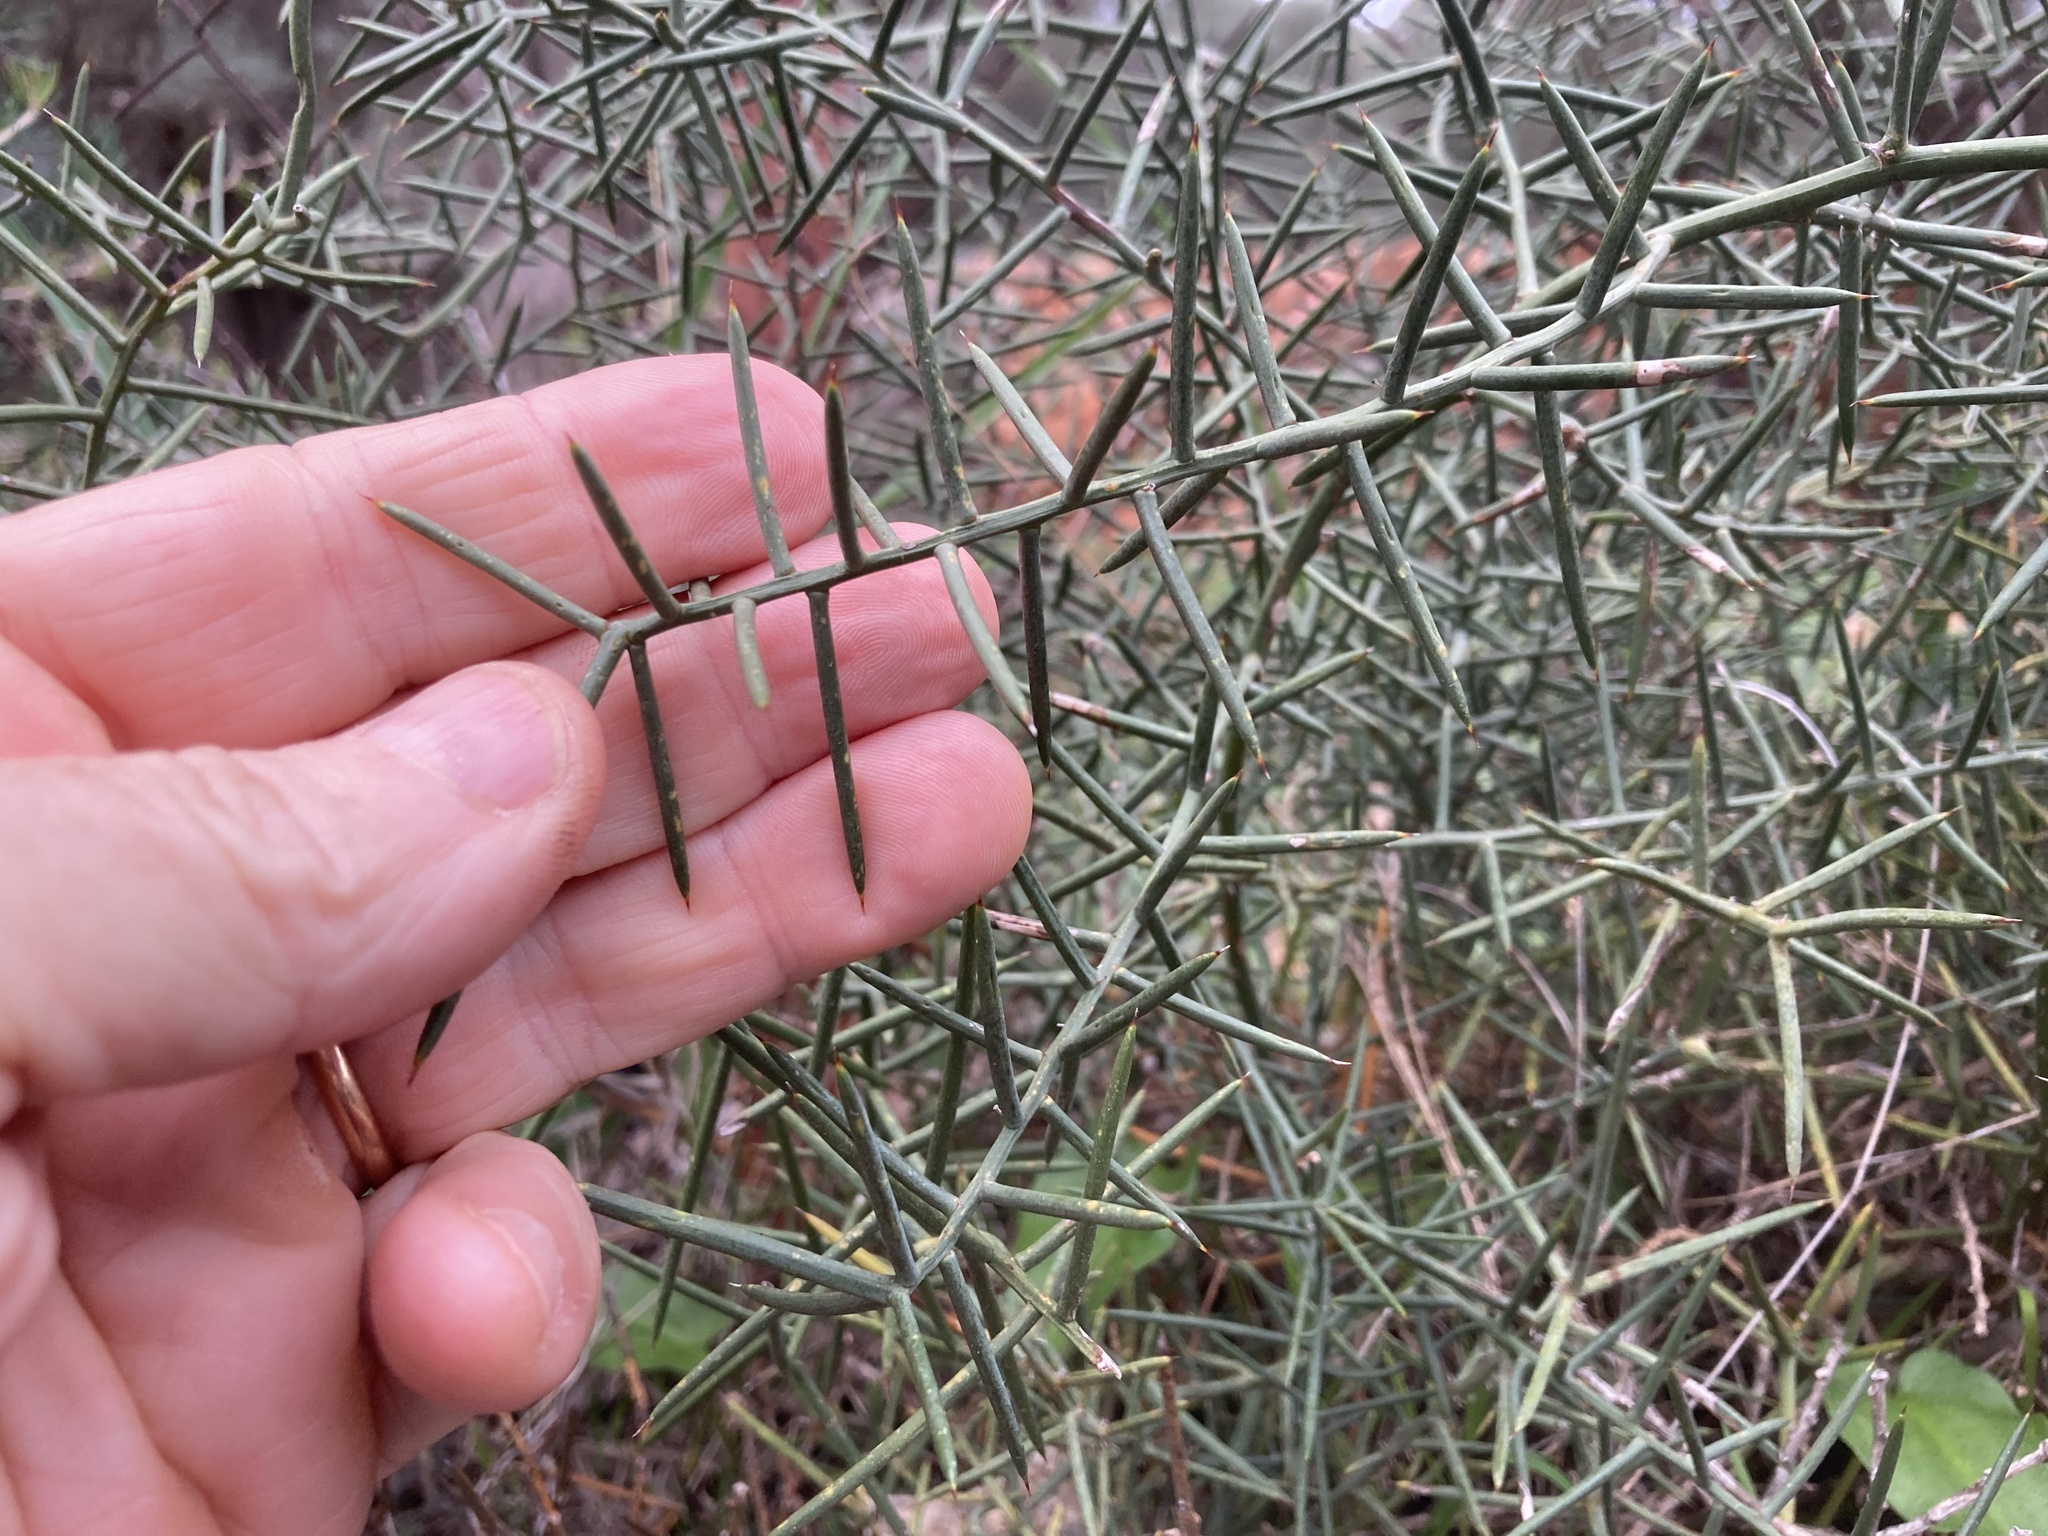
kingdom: Plantae
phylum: Tracheophyta
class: Liliopsida
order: Asparagales
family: Asparagaceae
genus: Asparagus
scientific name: Asparagus horridus
